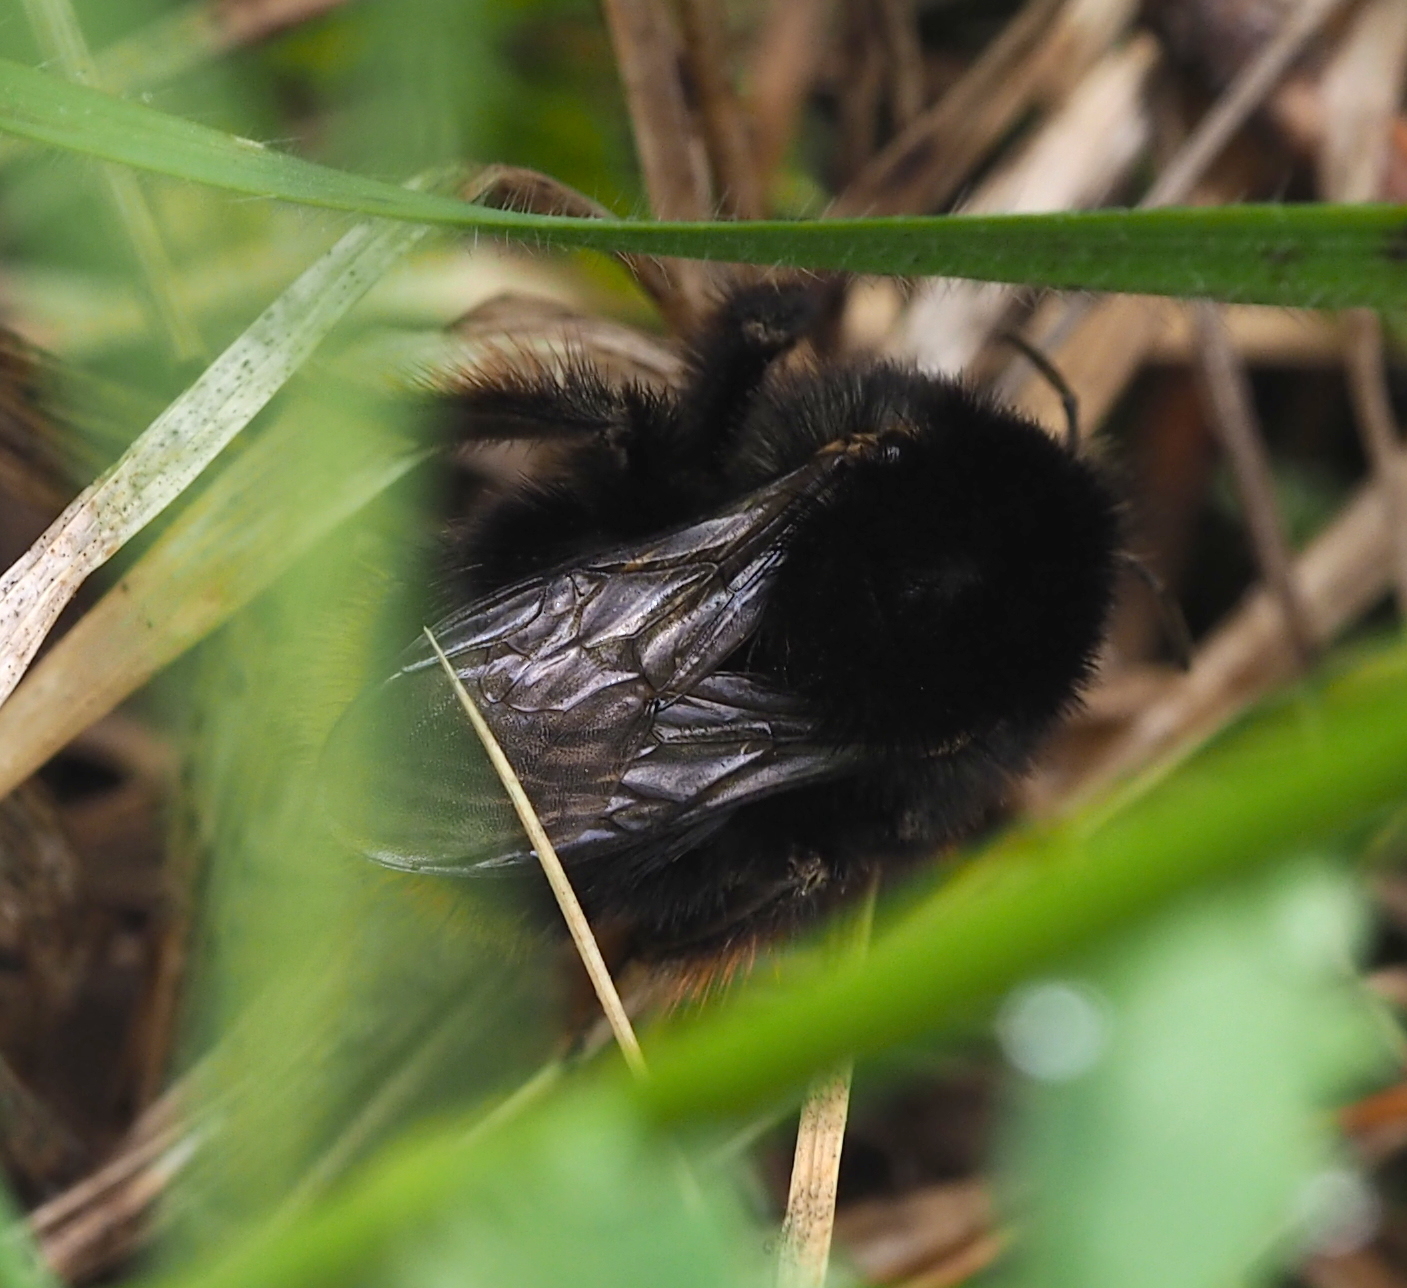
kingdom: Animalia
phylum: Arthropoda
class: Insecta
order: Hymenoptera
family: Apidae
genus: Bombus
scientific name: Bombus humilis
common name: Brown-banded carder-bee
